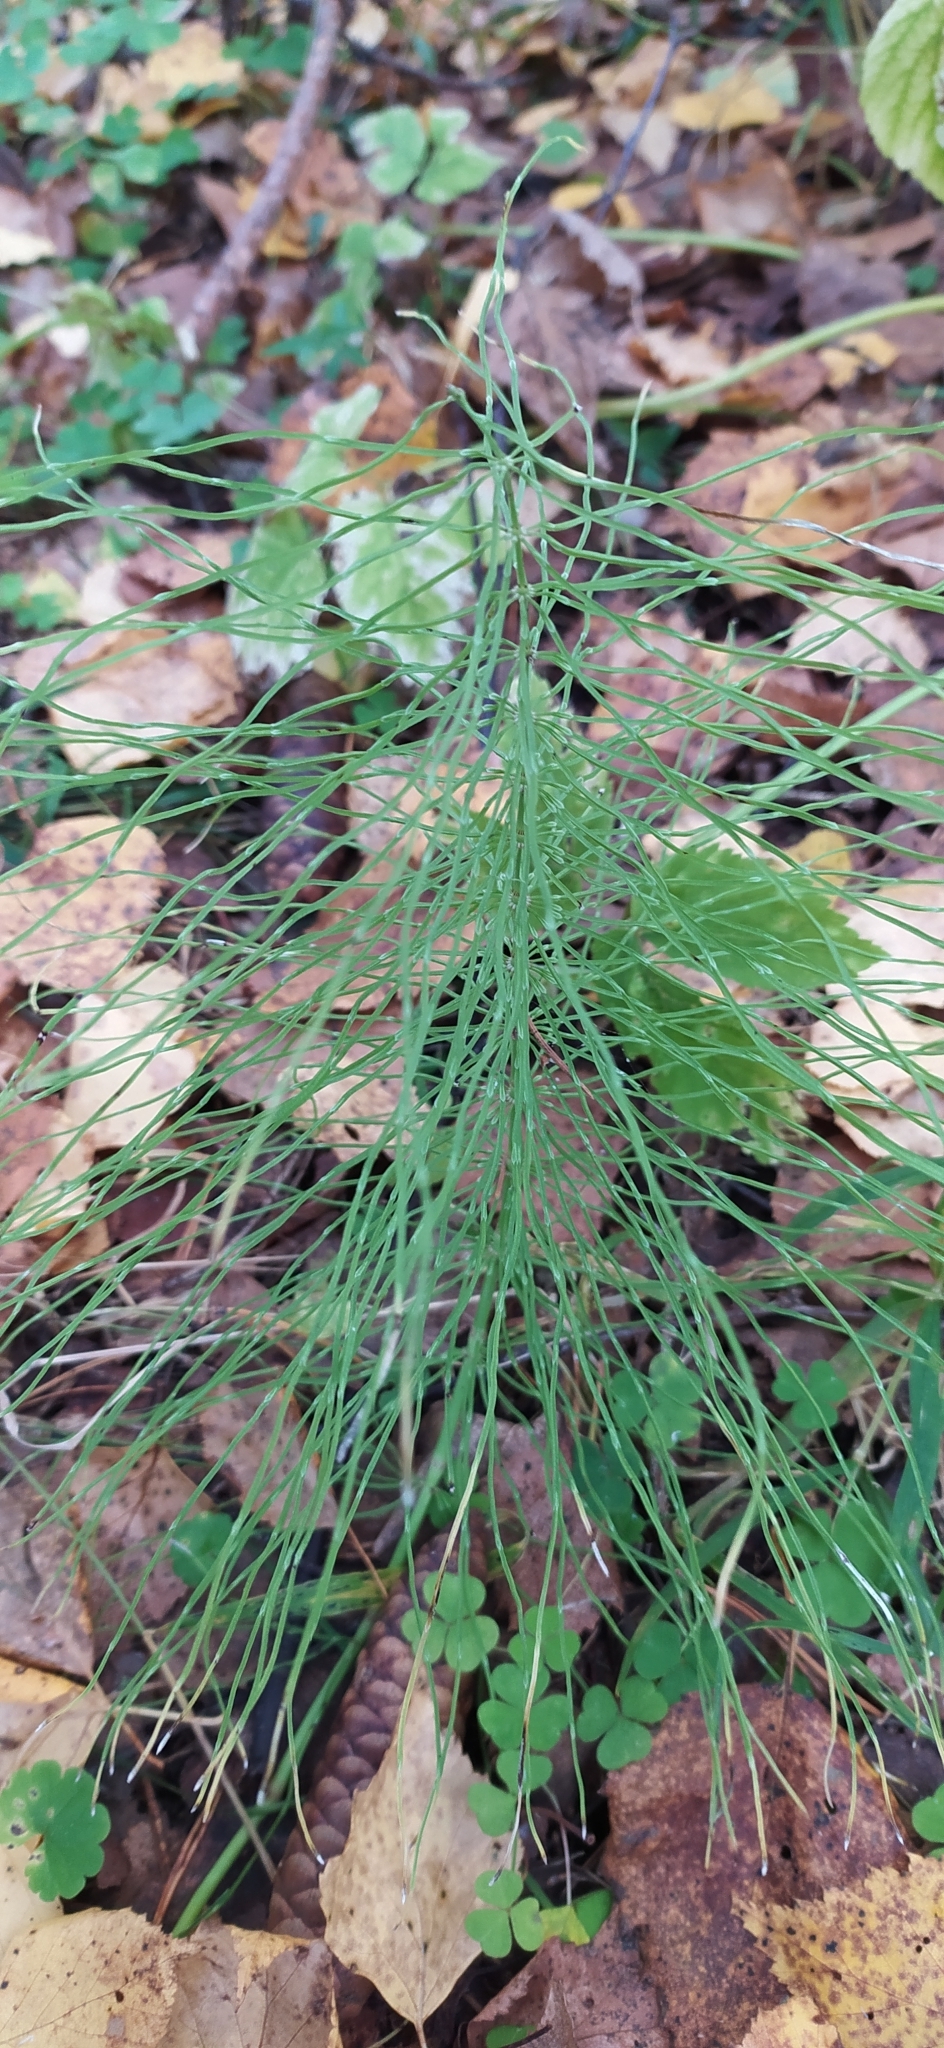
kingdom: Plantae
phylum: Tracheophyta
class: Polypodiopsida
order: Equisetales
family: Equisetaceae
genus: Equisetum
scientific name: Equisetum pratense
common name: Meadow horsetail
